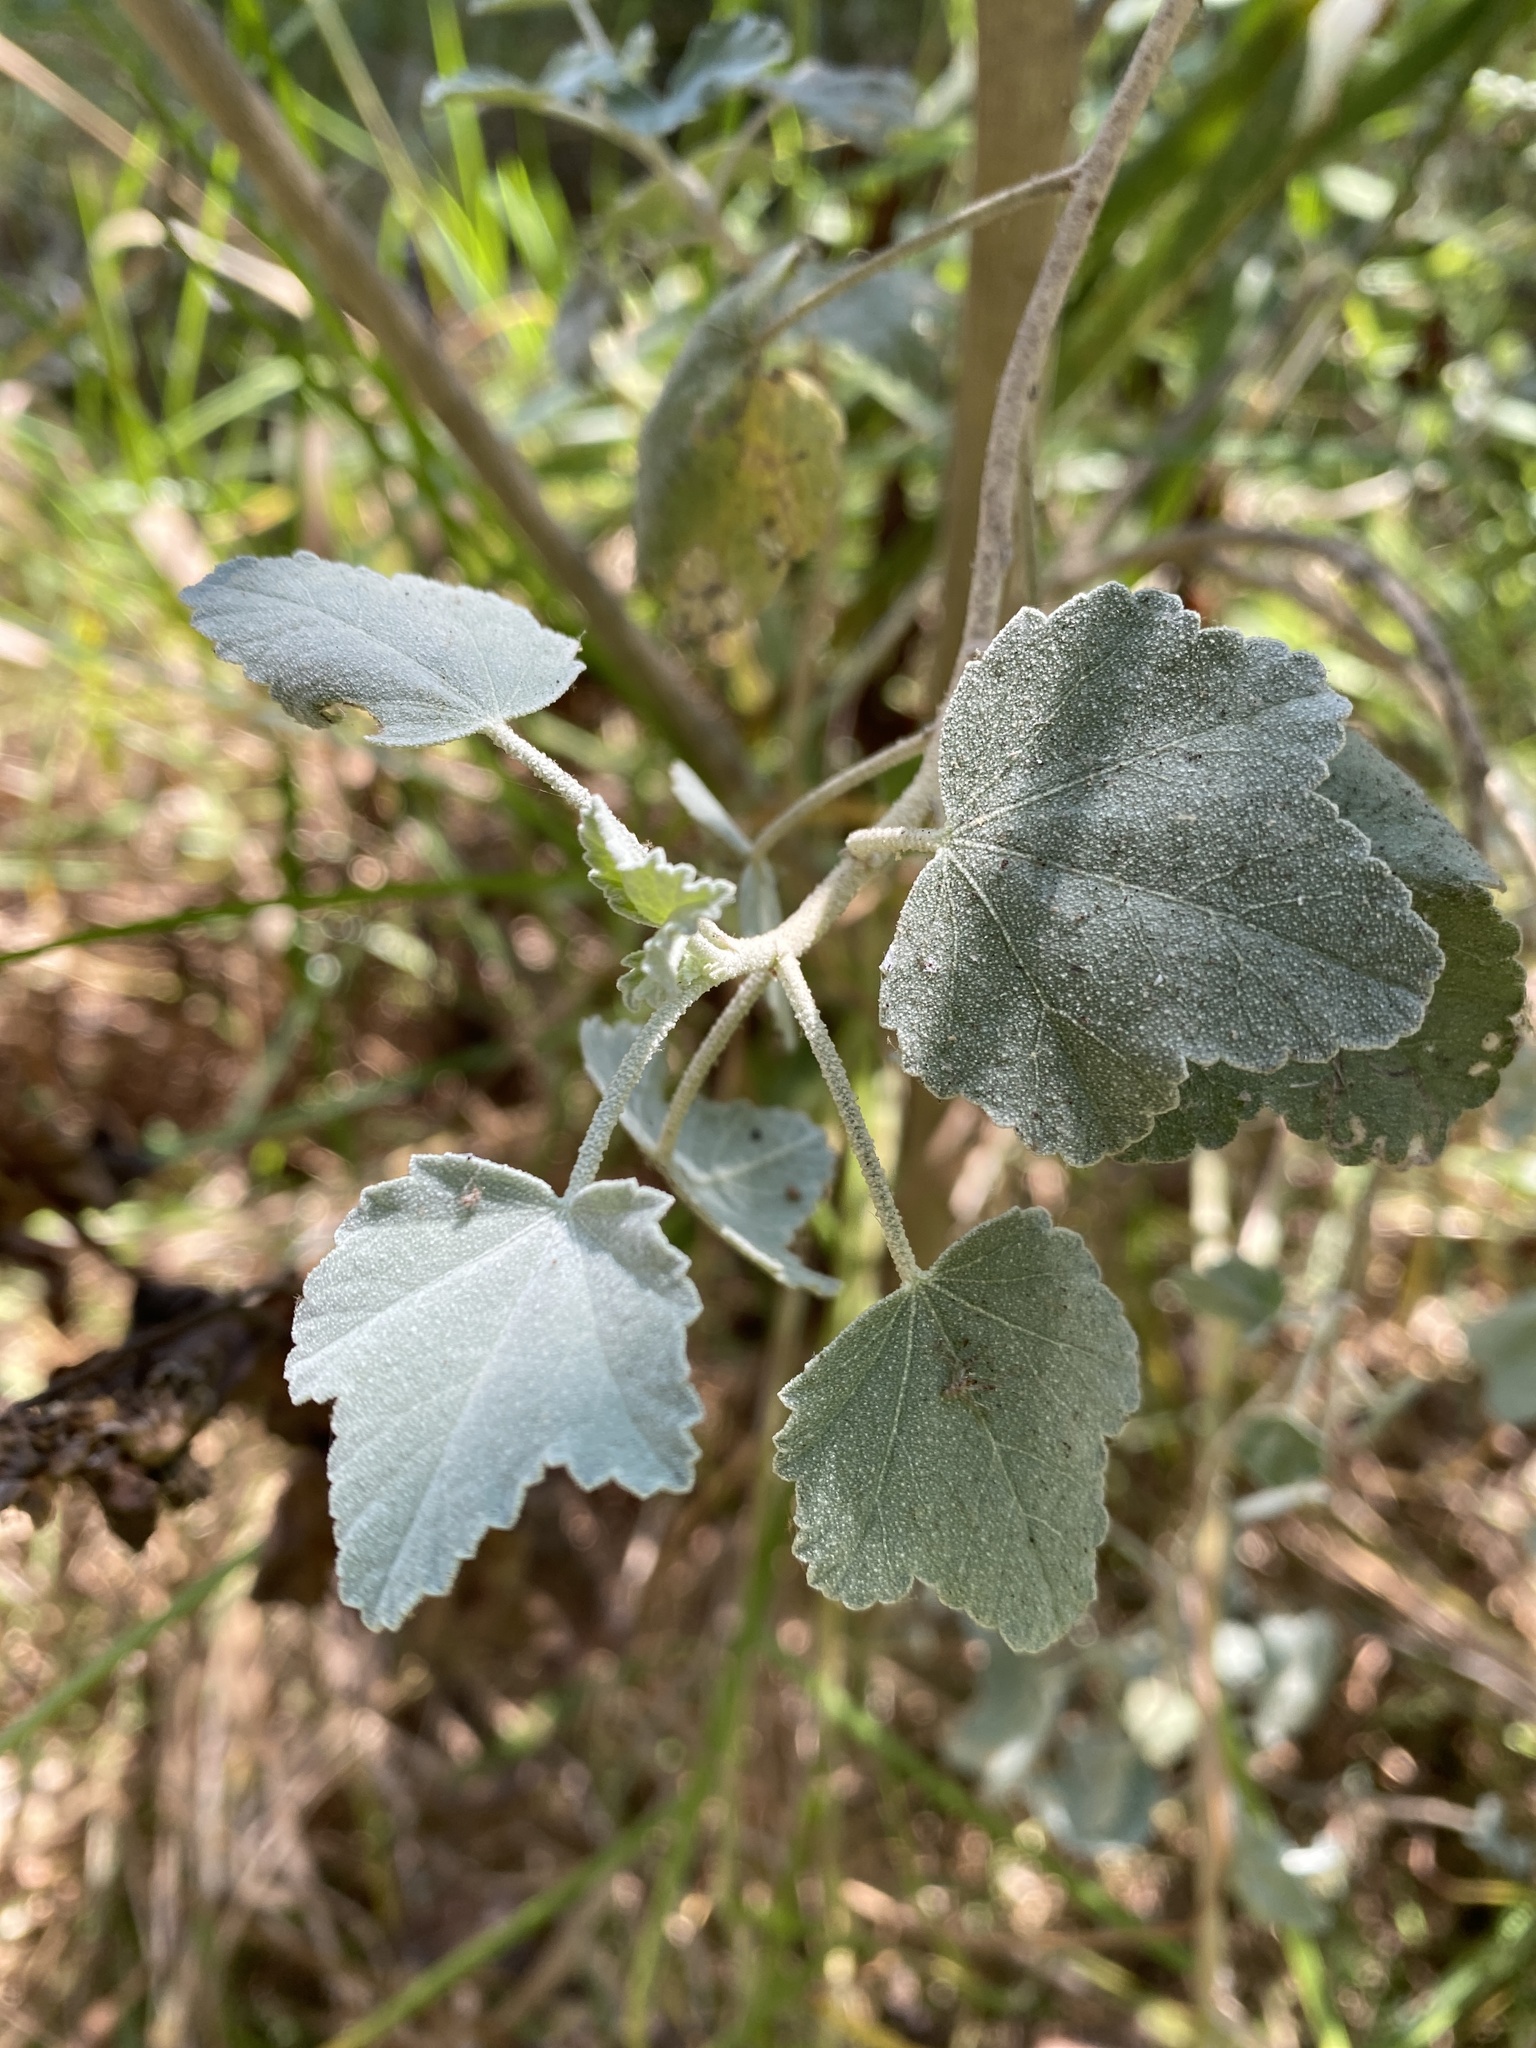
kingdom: Plantae
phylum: Tracheophyta
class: Magnoliopsida
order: Malvales
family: Malvaceae
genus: Malacothamnus
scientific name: Malacothamnus fasciculatus
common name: Sant cruz island bush-mallow
